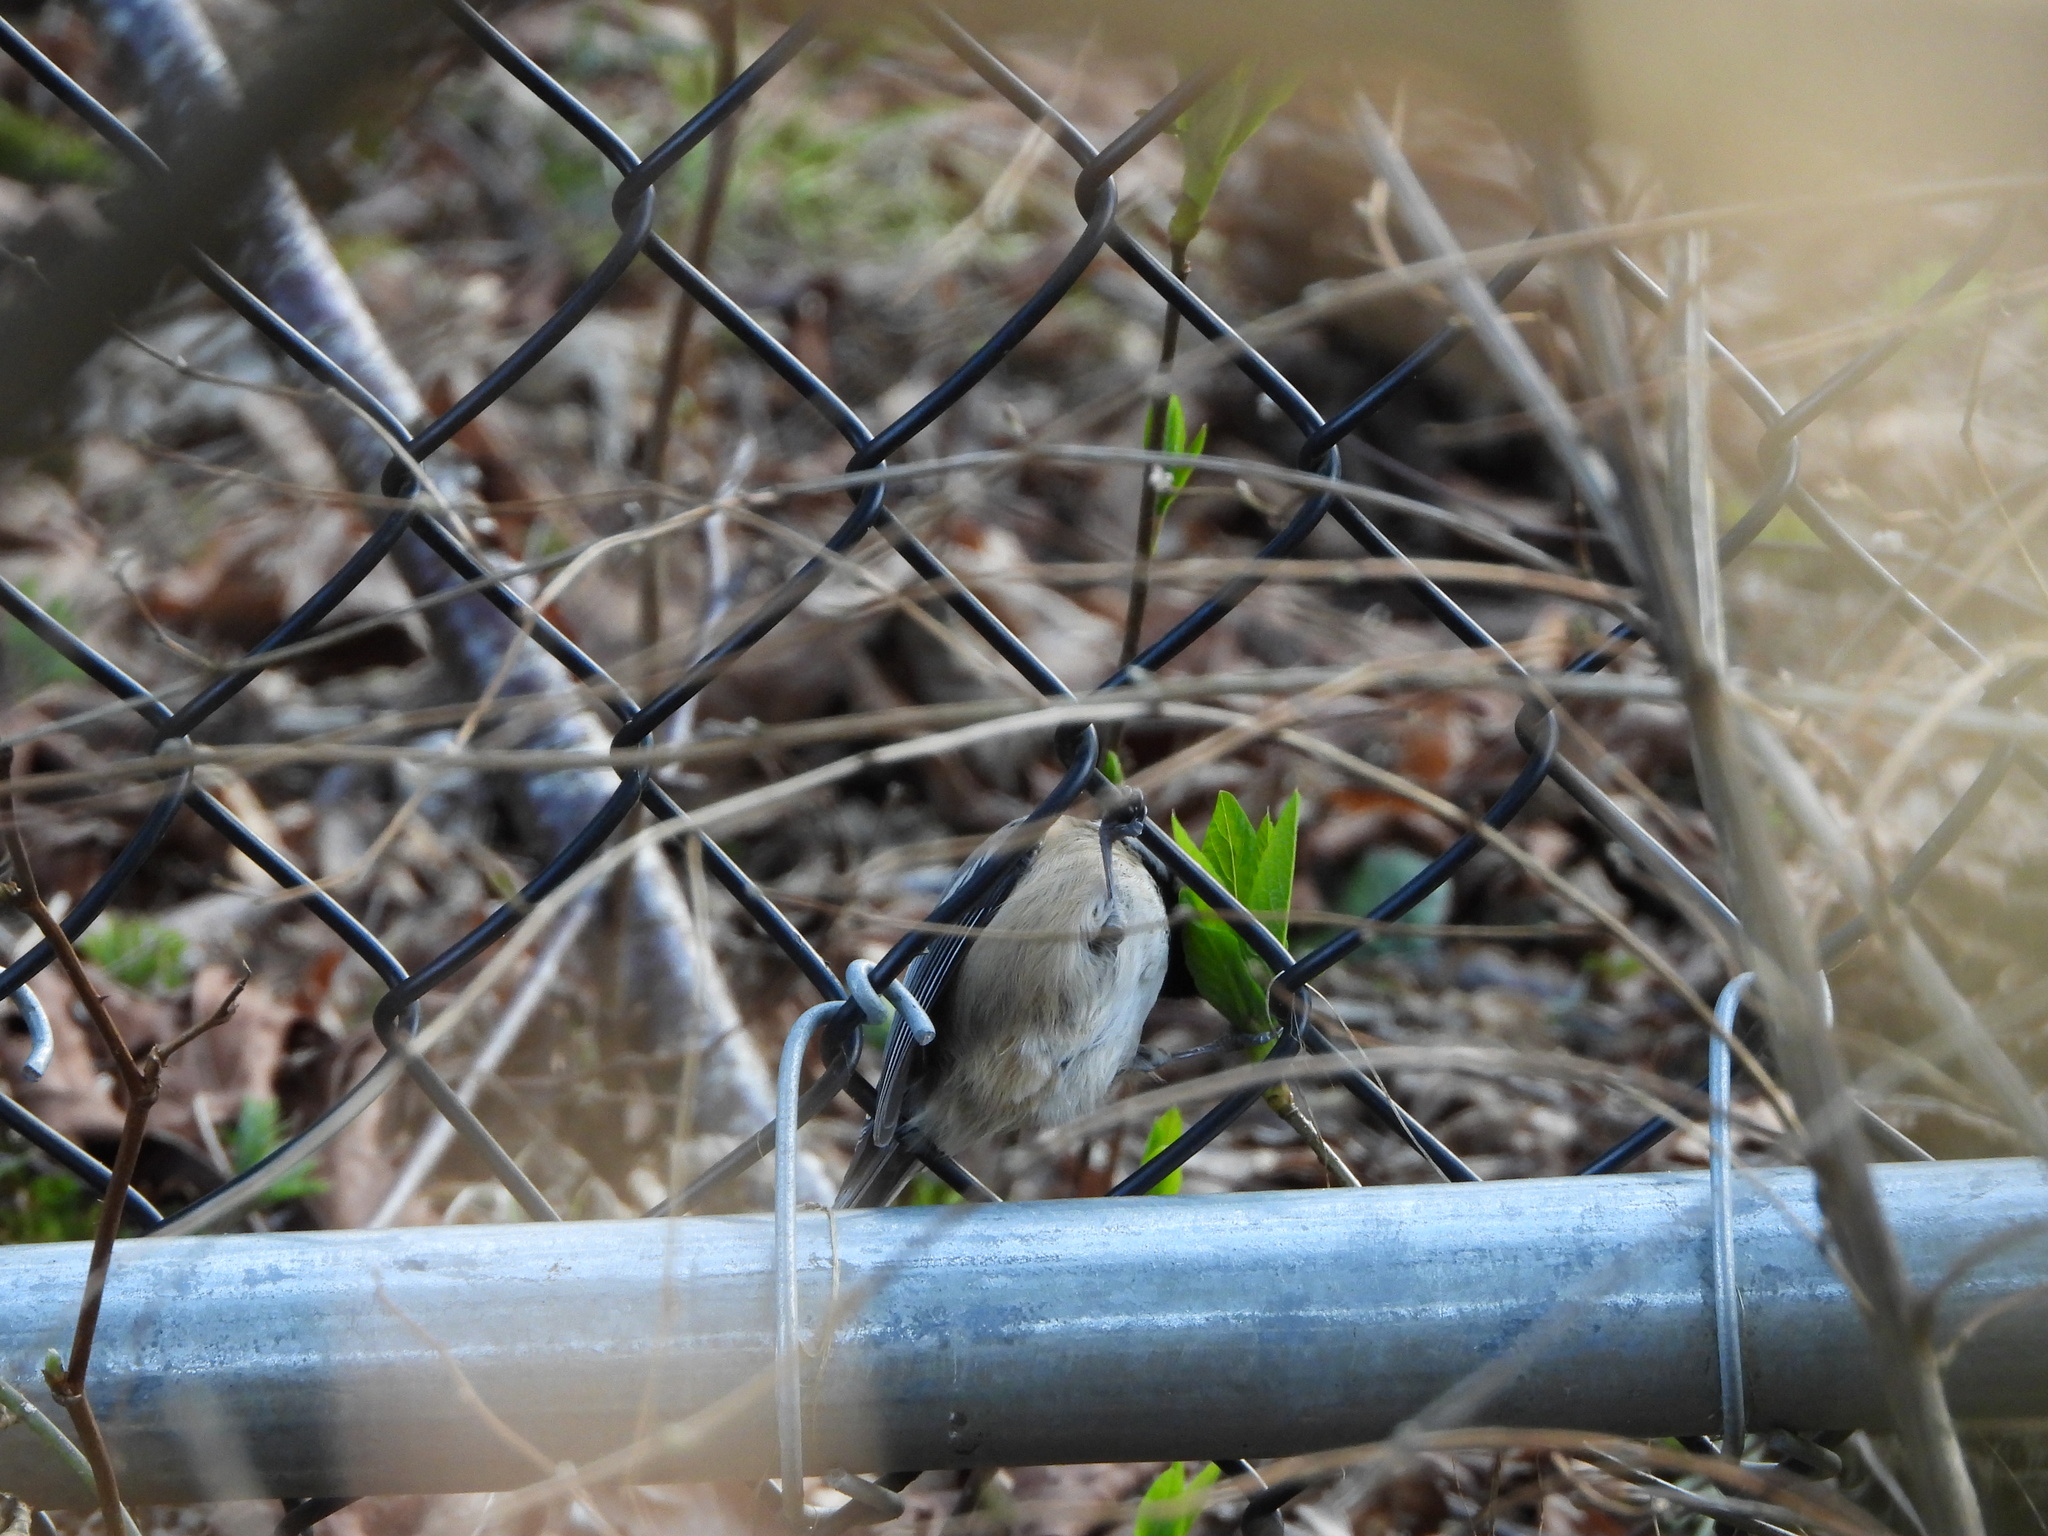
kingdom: Animalia
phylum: Chordata
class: Aves
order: Passeriformes
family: Paridae
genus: Poecile
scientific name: Poecile atricapillus
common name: Black-capped chickadee
